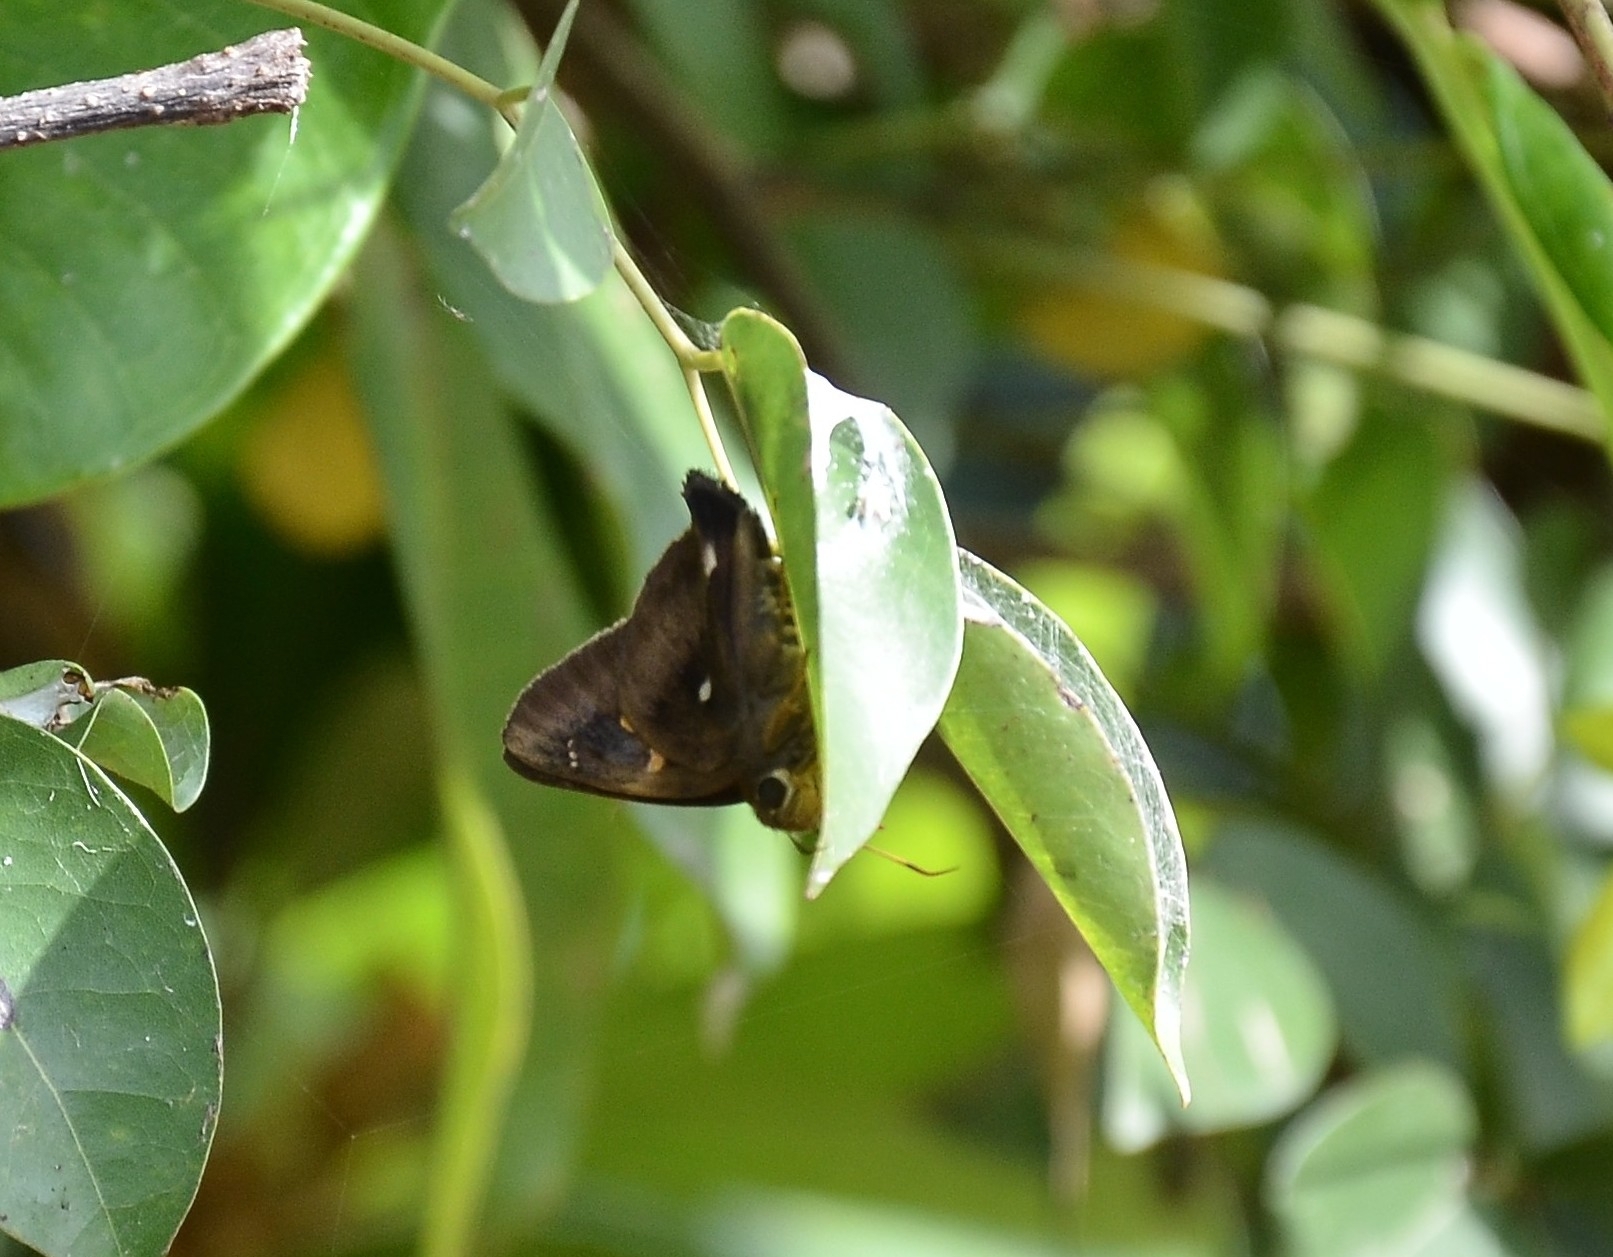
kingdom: Animalia
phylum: Arthropoda
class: Insecta
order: Lepidoptera
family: Hesperiidae
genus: Hasora
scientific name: Hasora badra
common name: Common awl
